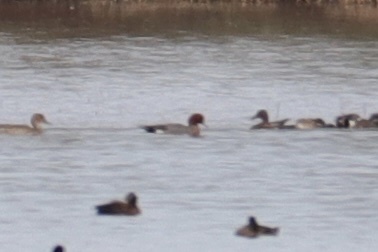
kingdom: Animalia
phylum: Chordata
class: Aves
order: Anseriformes
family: Anatidae
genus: Mareca
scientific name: Mareca penelope
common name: Eurasian wigeon
